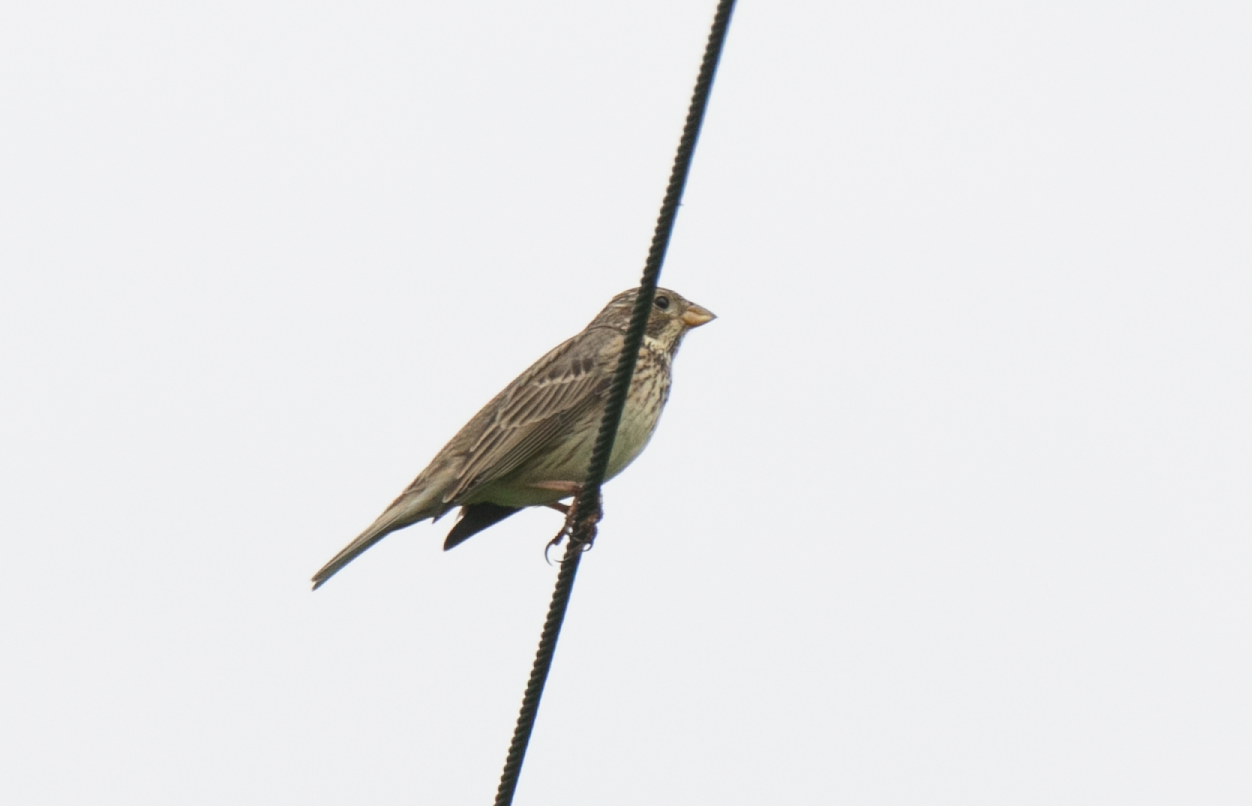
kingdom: Animalia
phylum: Chordata
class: Aves
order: Passeriformes
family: Emberizidae
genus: Emberiza
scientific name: Emberiza calandra
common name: Corn bunting
